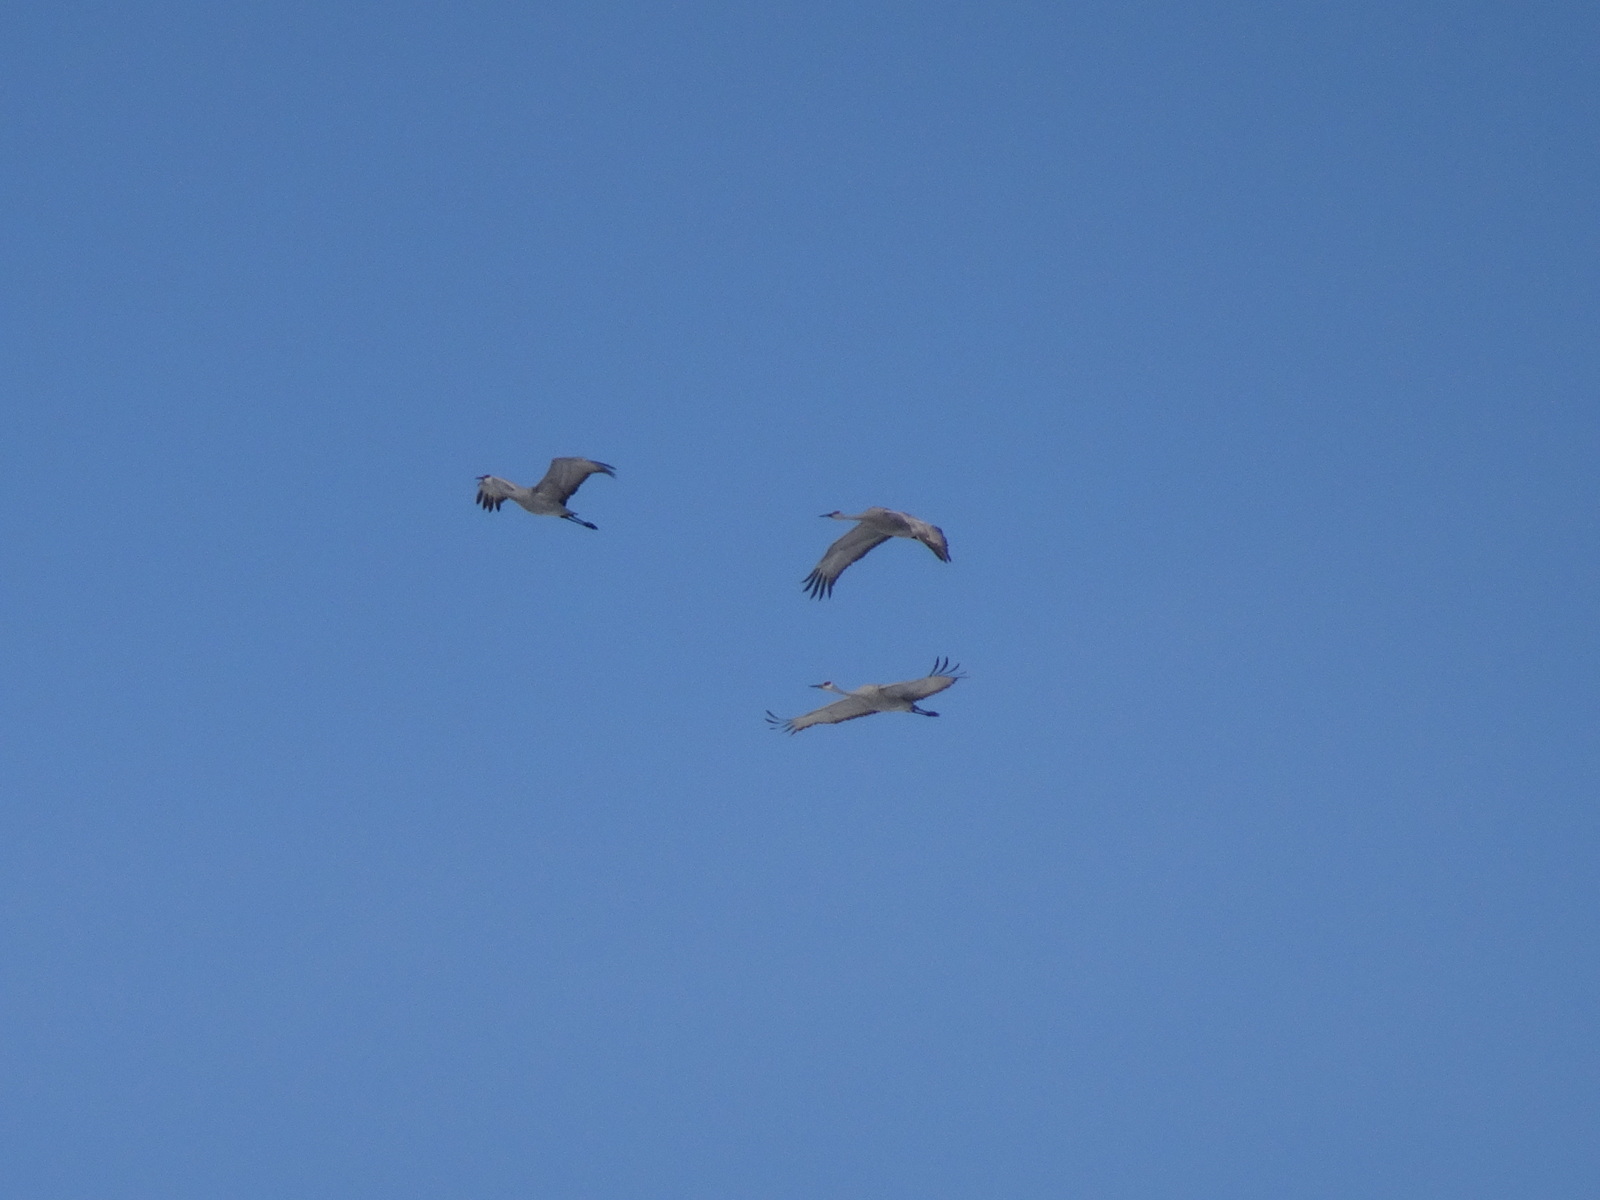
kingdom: Animalia
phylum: Chordata
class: Aves
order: Gruiformes
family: Gruidae
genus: Grus
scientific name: Grus canadensis
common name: Sandhill crane
